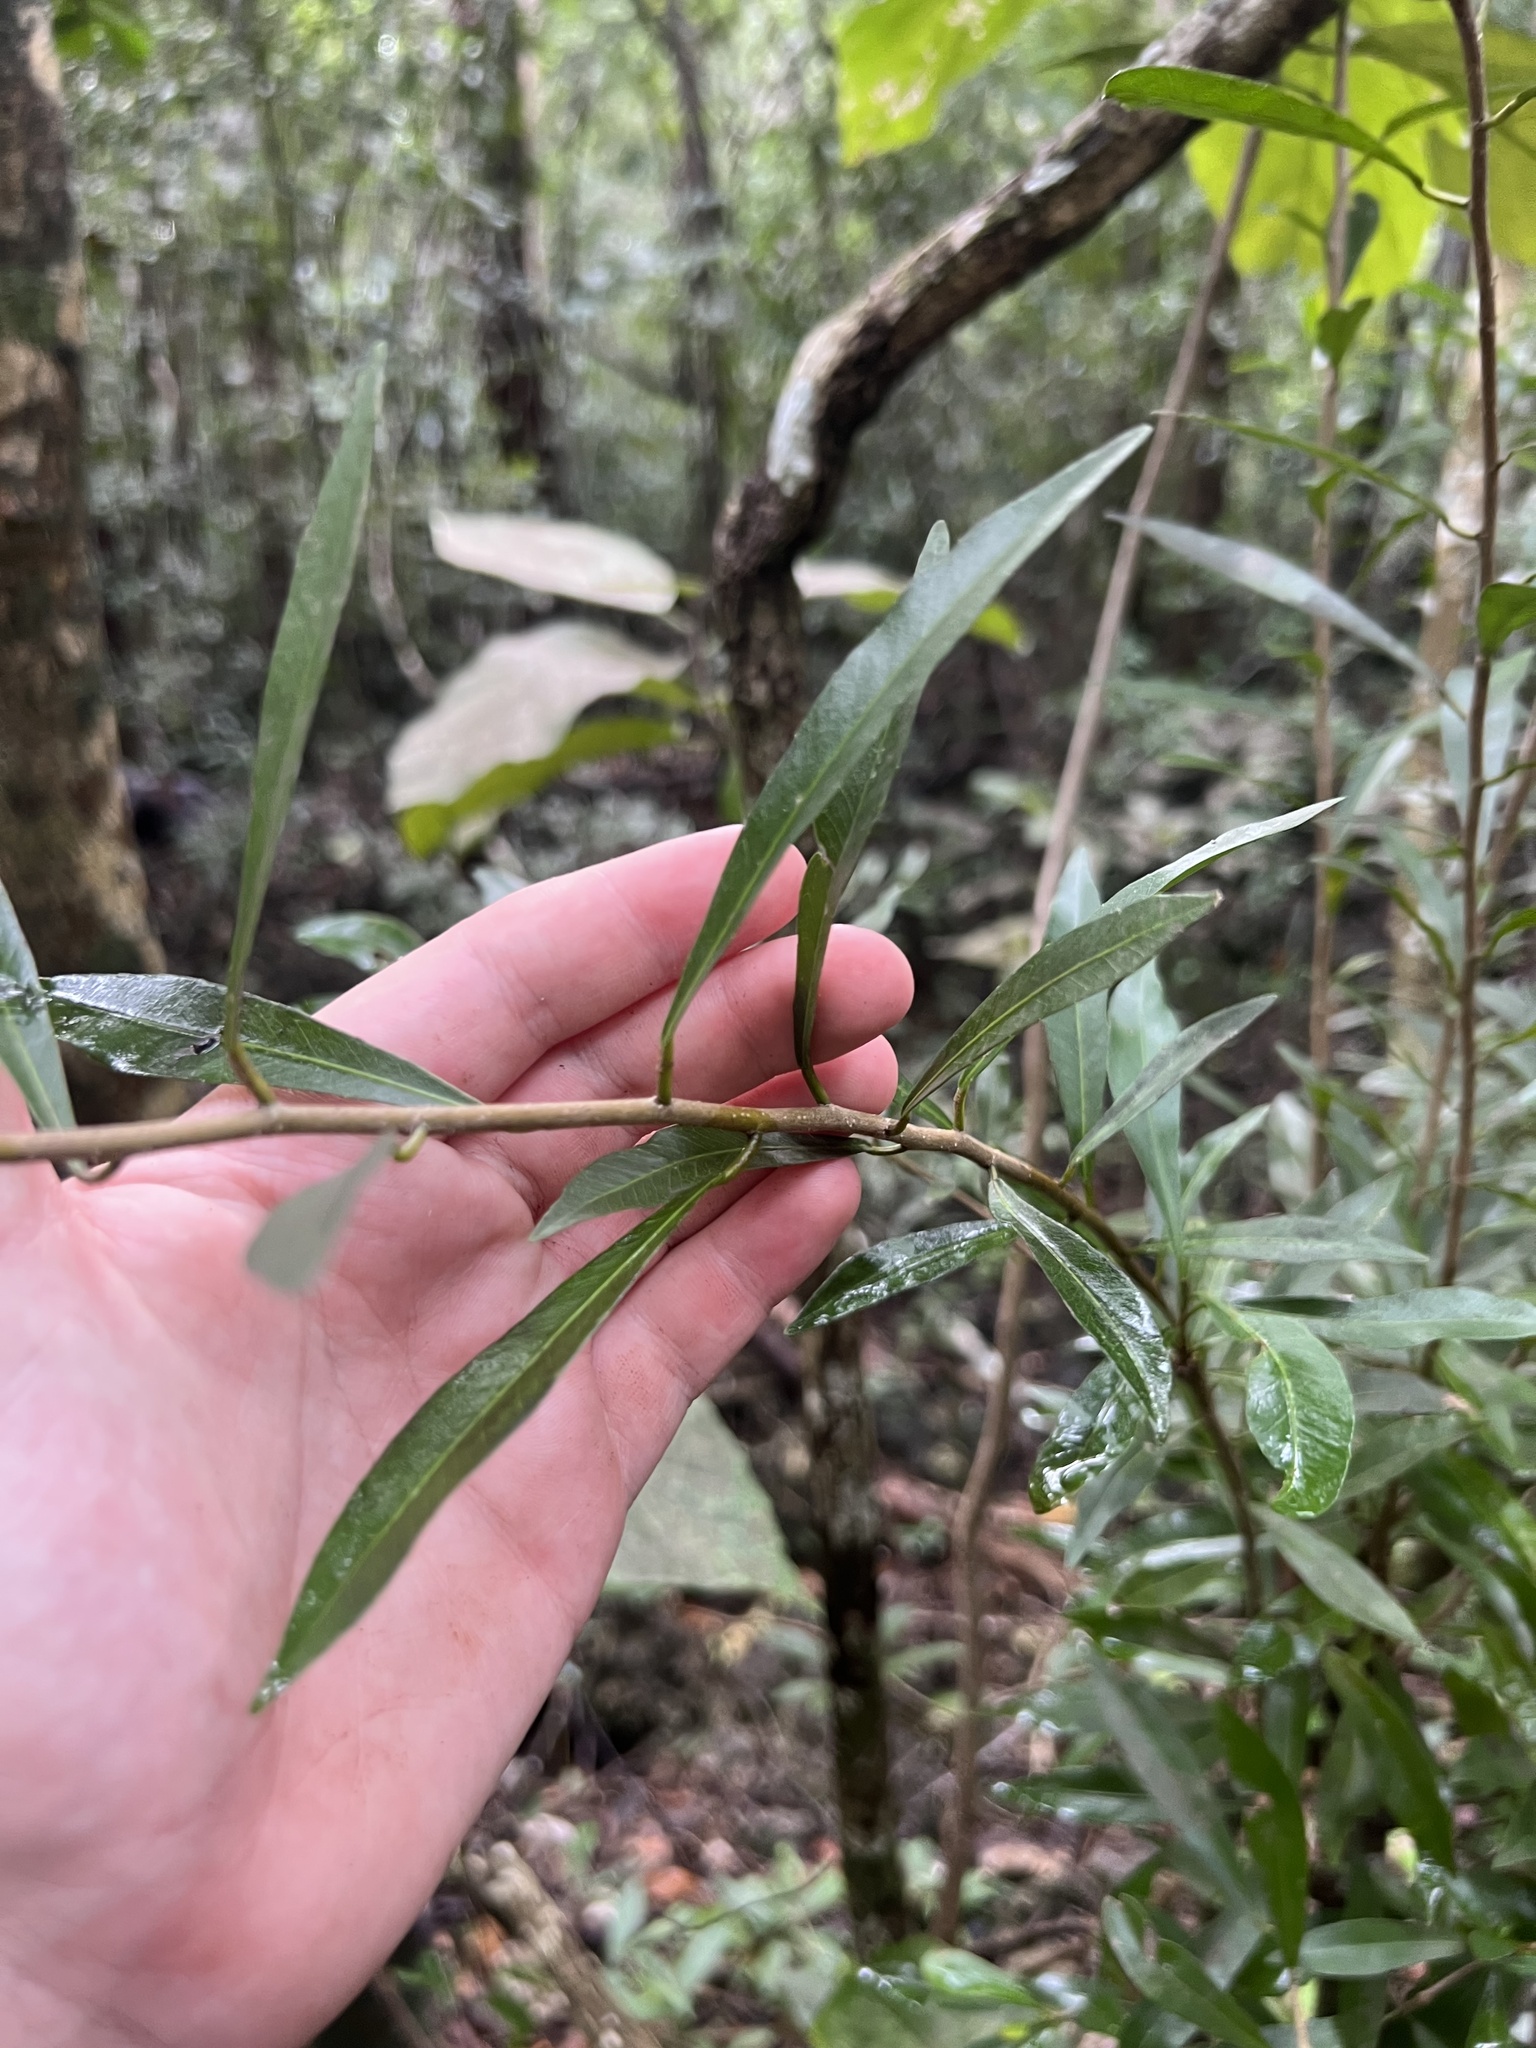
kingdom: Plantae
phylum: Tracheophyta
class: Magnoliopsida
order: Malpighiales
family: Euphorbiaceae
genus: Gymnanthes
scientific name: Gymnanthes lucida
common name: Oysterwood
